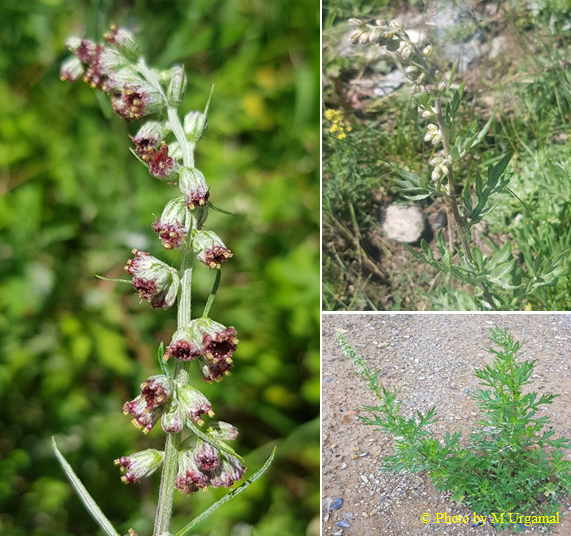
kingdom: Plantae
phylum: Tracheophyta
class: Magnoliopsida
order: Asterales
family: Asteraceae
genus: Artemisia
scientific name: Artemisia vulgaris
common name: Mugwort
